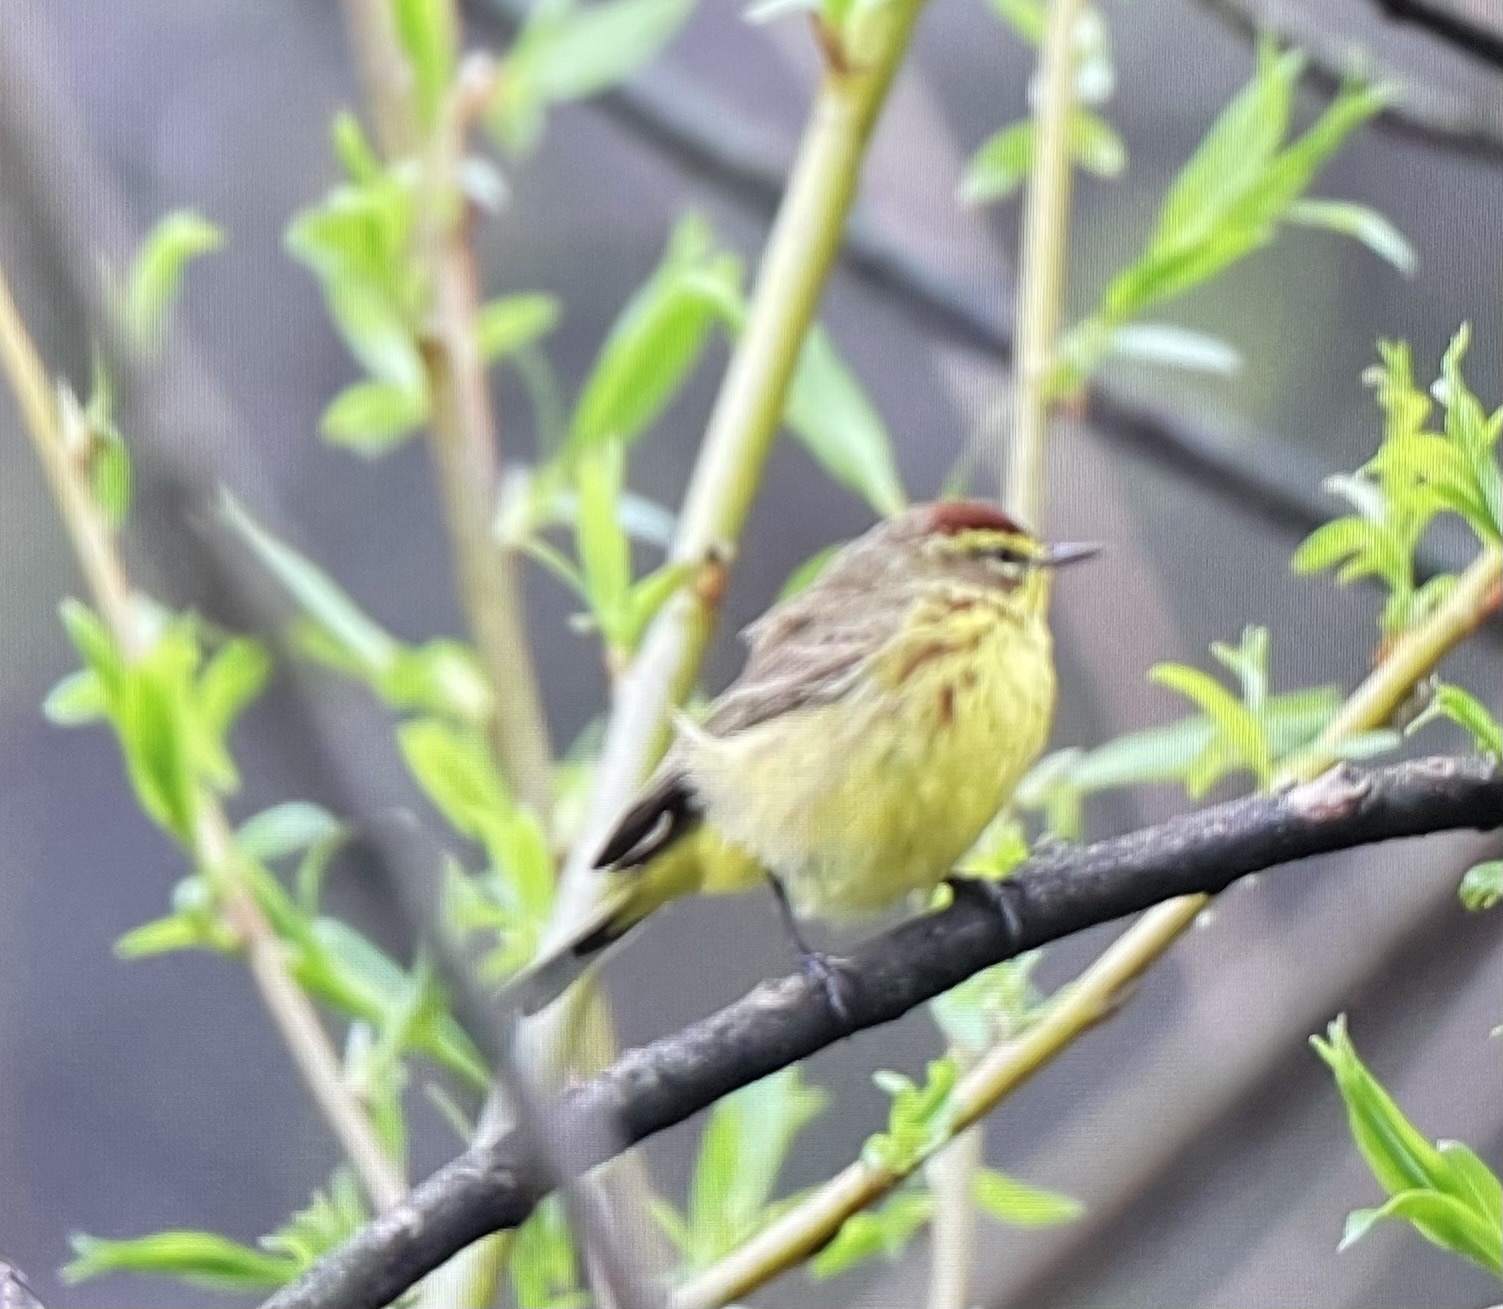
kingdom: Animalia
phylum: Chordata
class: Aves
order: Passeriformes
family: Parulidae
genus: Setophaga
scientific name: Setophaga palmarum
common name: Palm warbler
